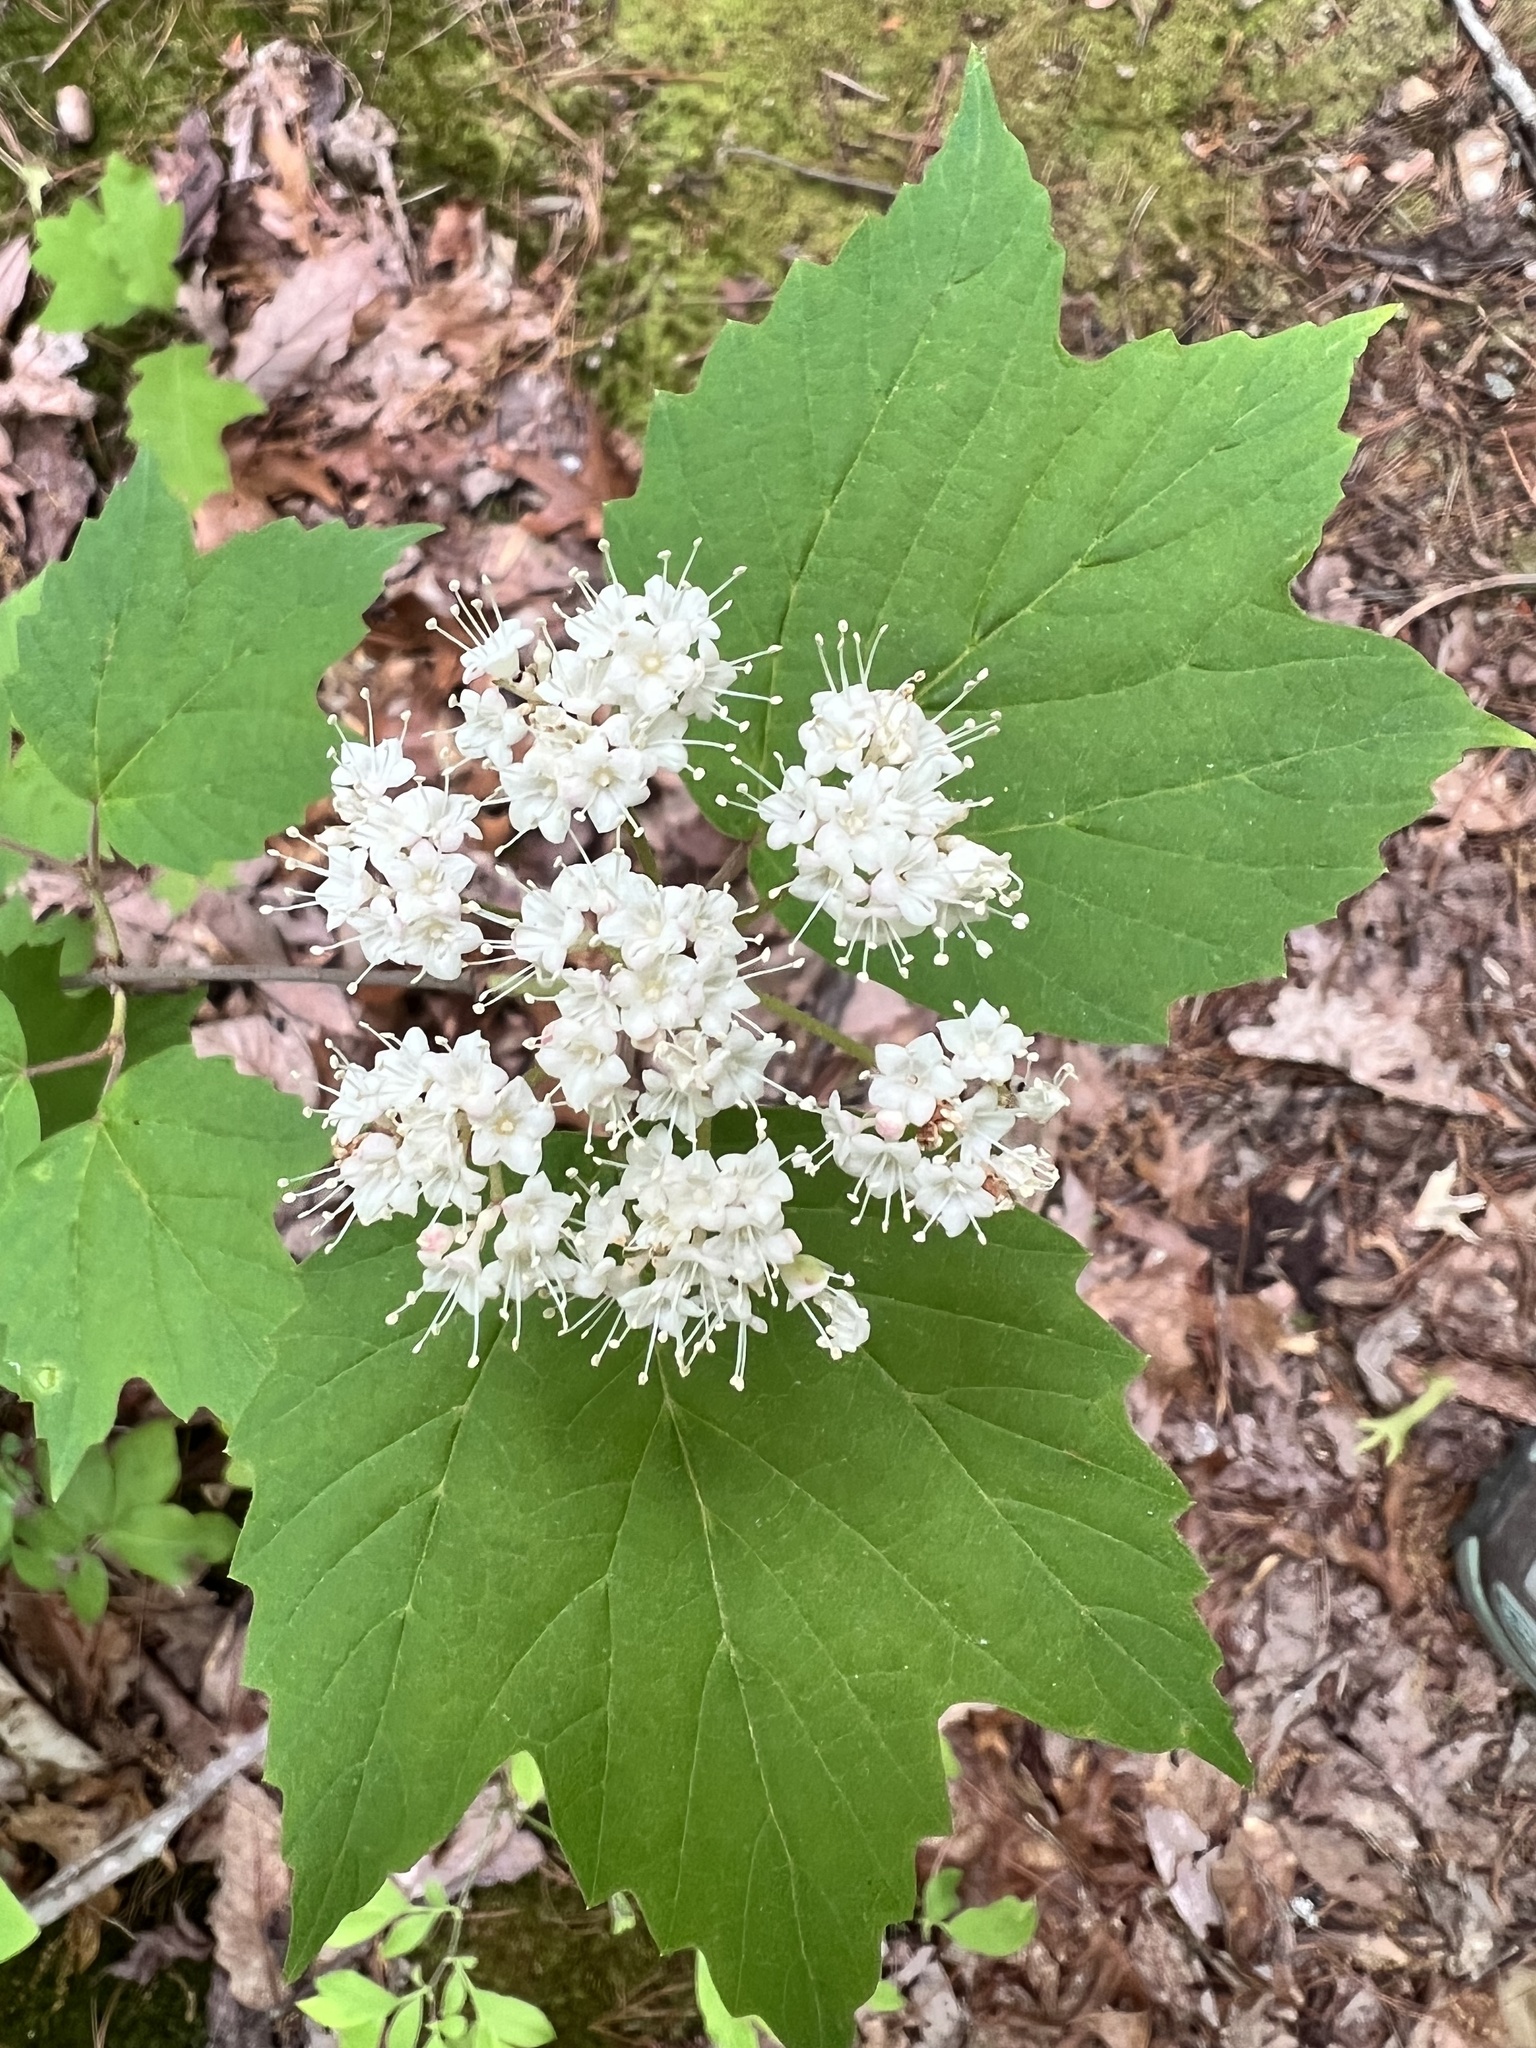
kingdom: Plantae
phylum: Tracheophyta
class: Magnoliopsida
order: Dipsacales
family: Viburnaceae
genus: Viburnum
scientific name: Viburnum acerifolium
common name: Dockmackie
